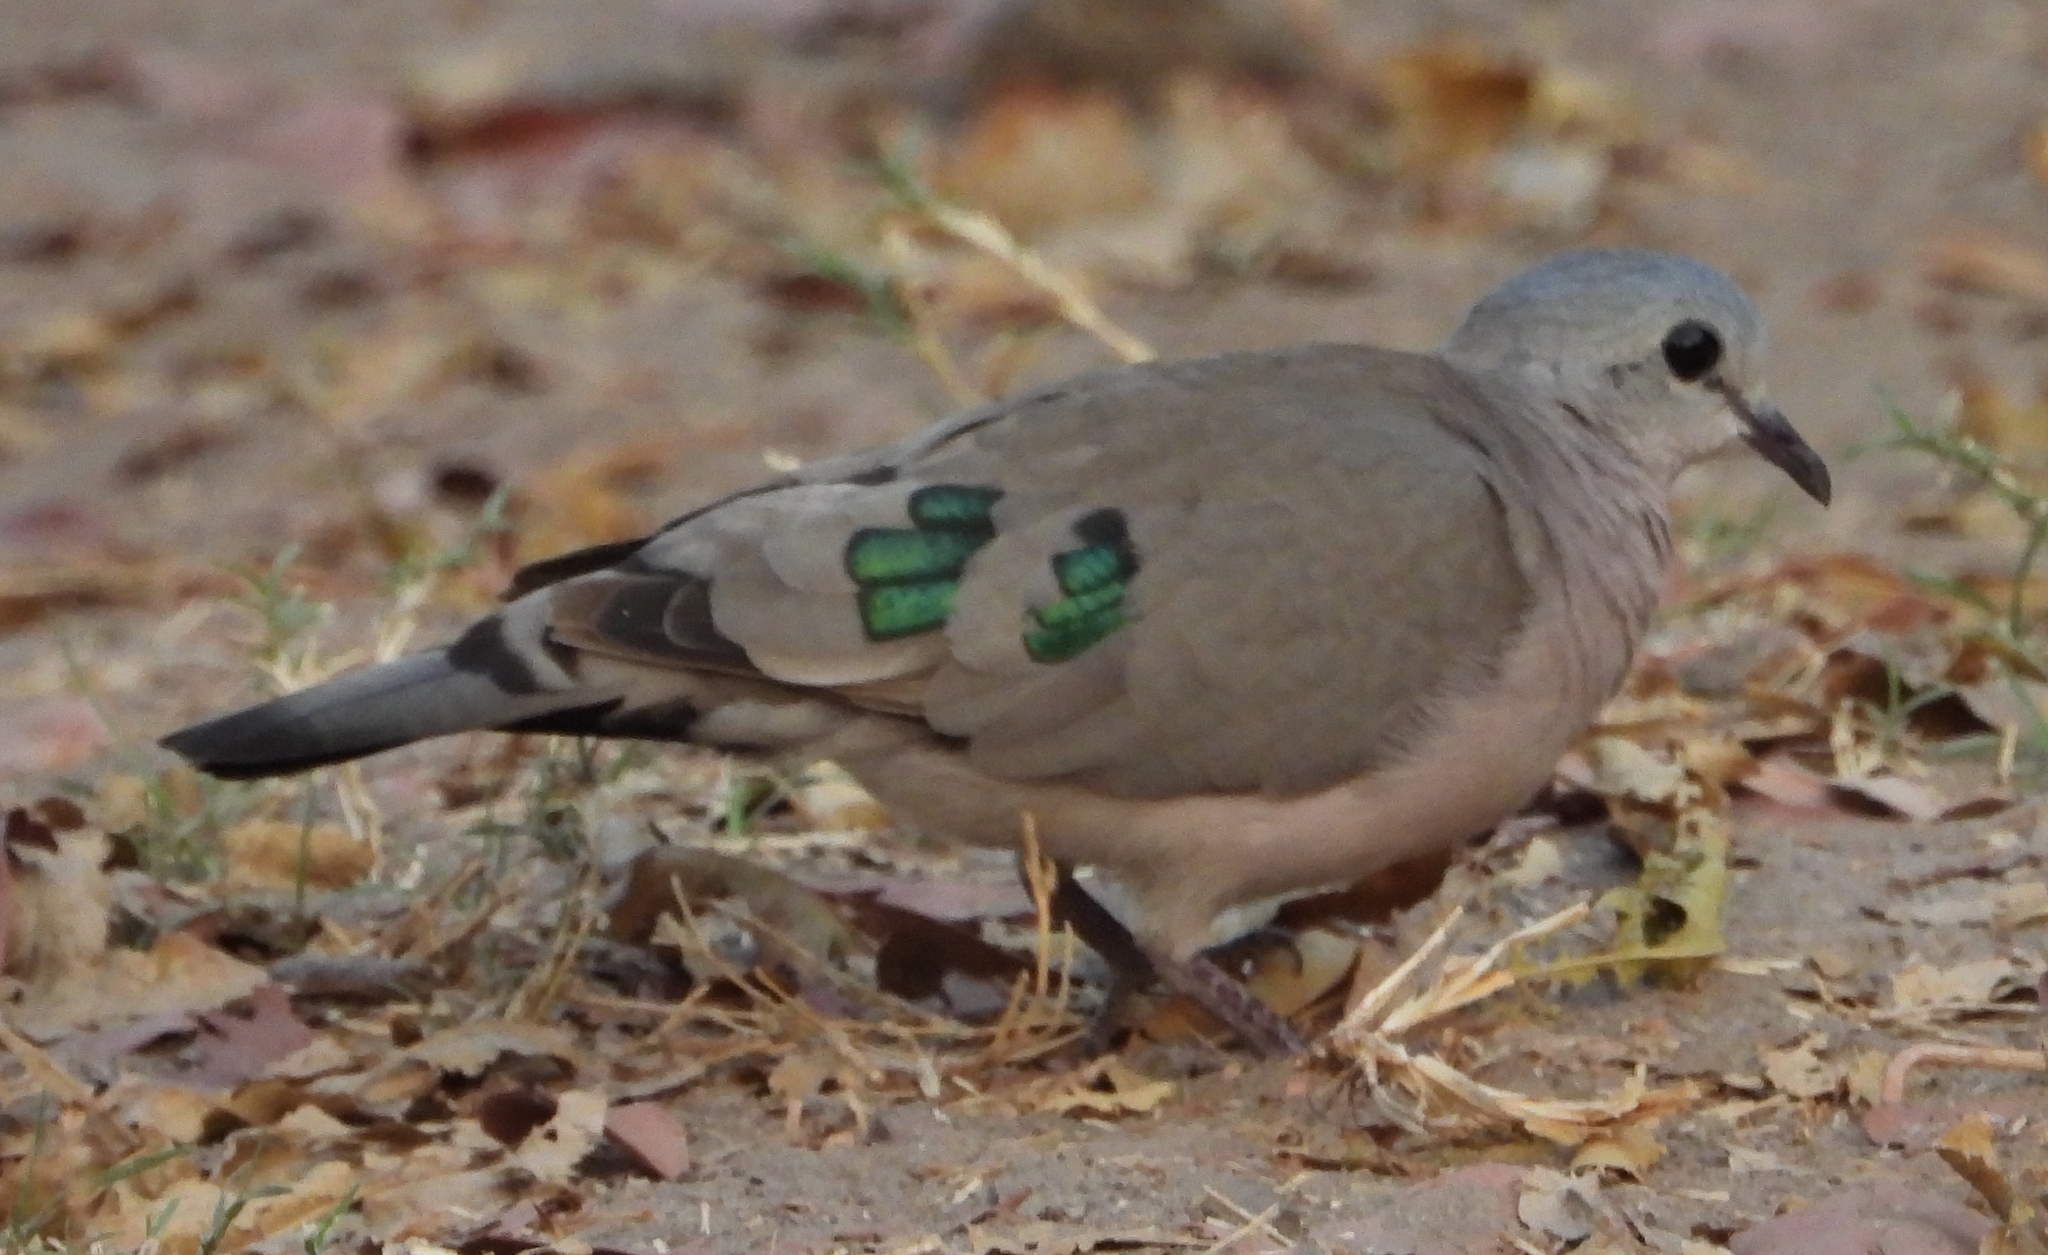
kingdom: Animalia
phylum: Chordata
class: Aves
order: Columbiformes
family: Columbidae
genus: Turtur
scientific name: Turtur chalcospilos
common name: Emerald-spotted wood dove
